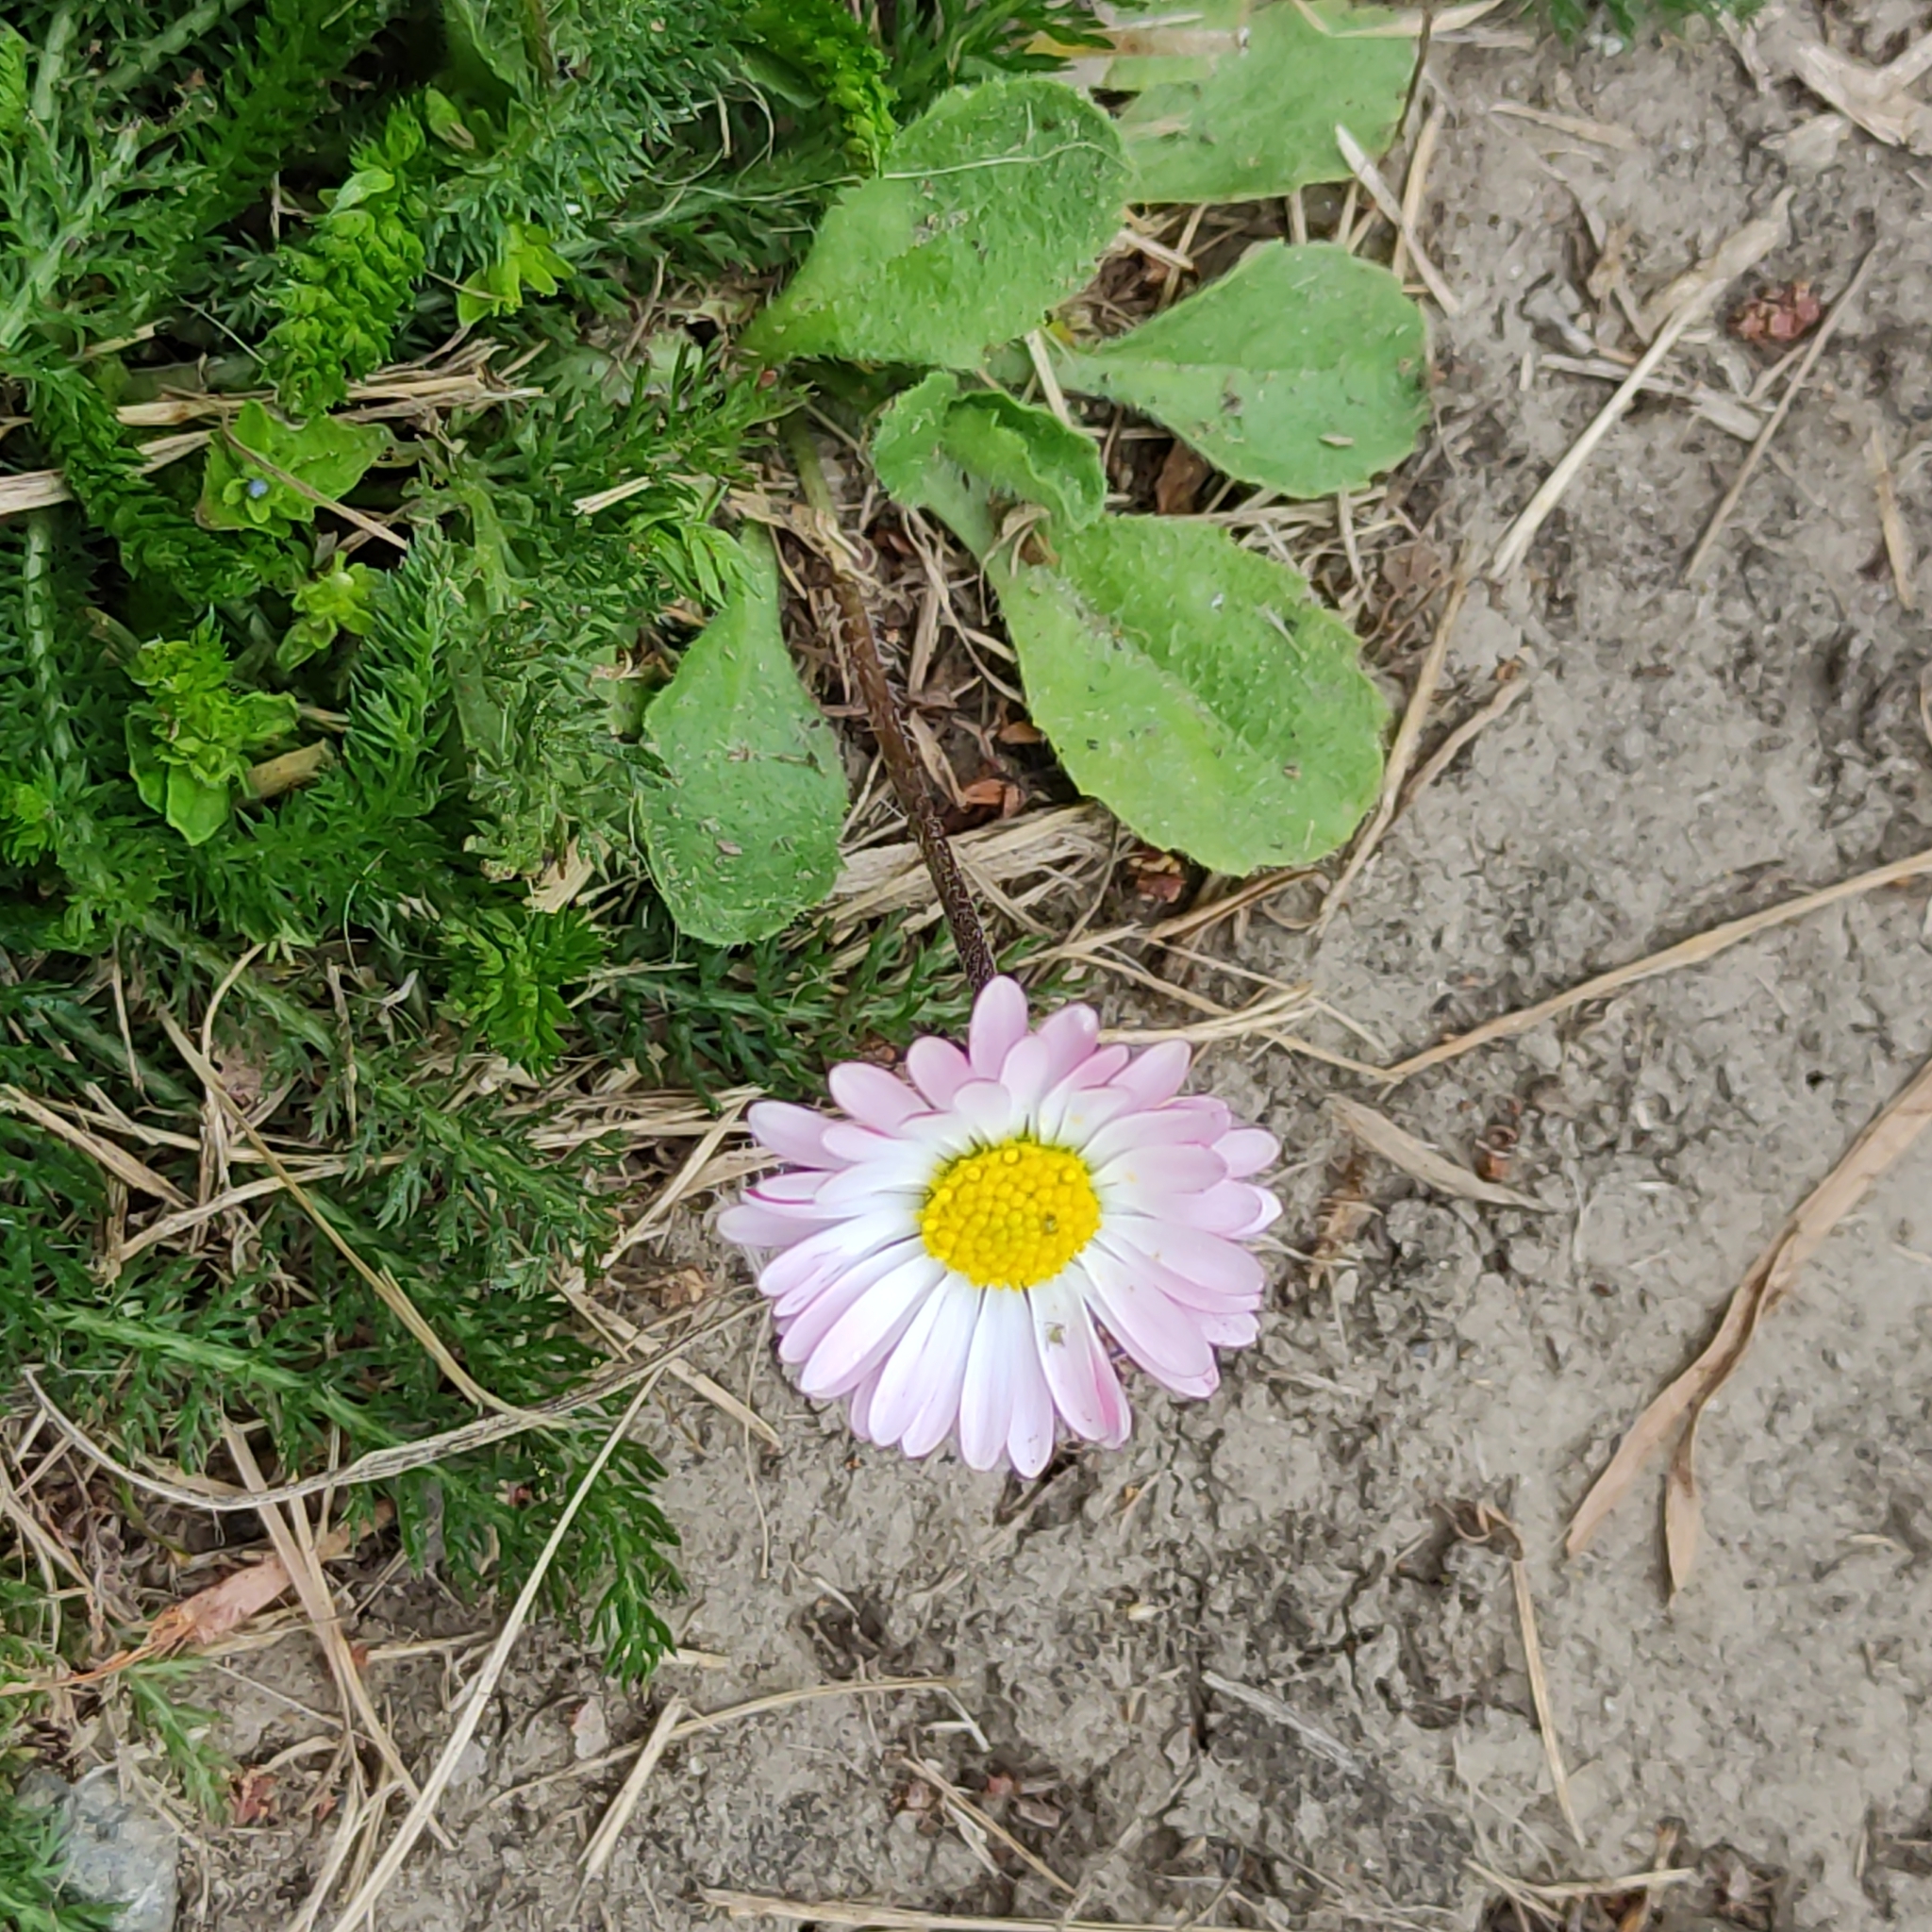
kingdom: Plantae
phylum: Tracheophyta
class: Magnoliopsida
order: Asterales
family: Asteraceae
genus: Bellis
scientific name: Bellis perennis
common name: Lawndaisy
